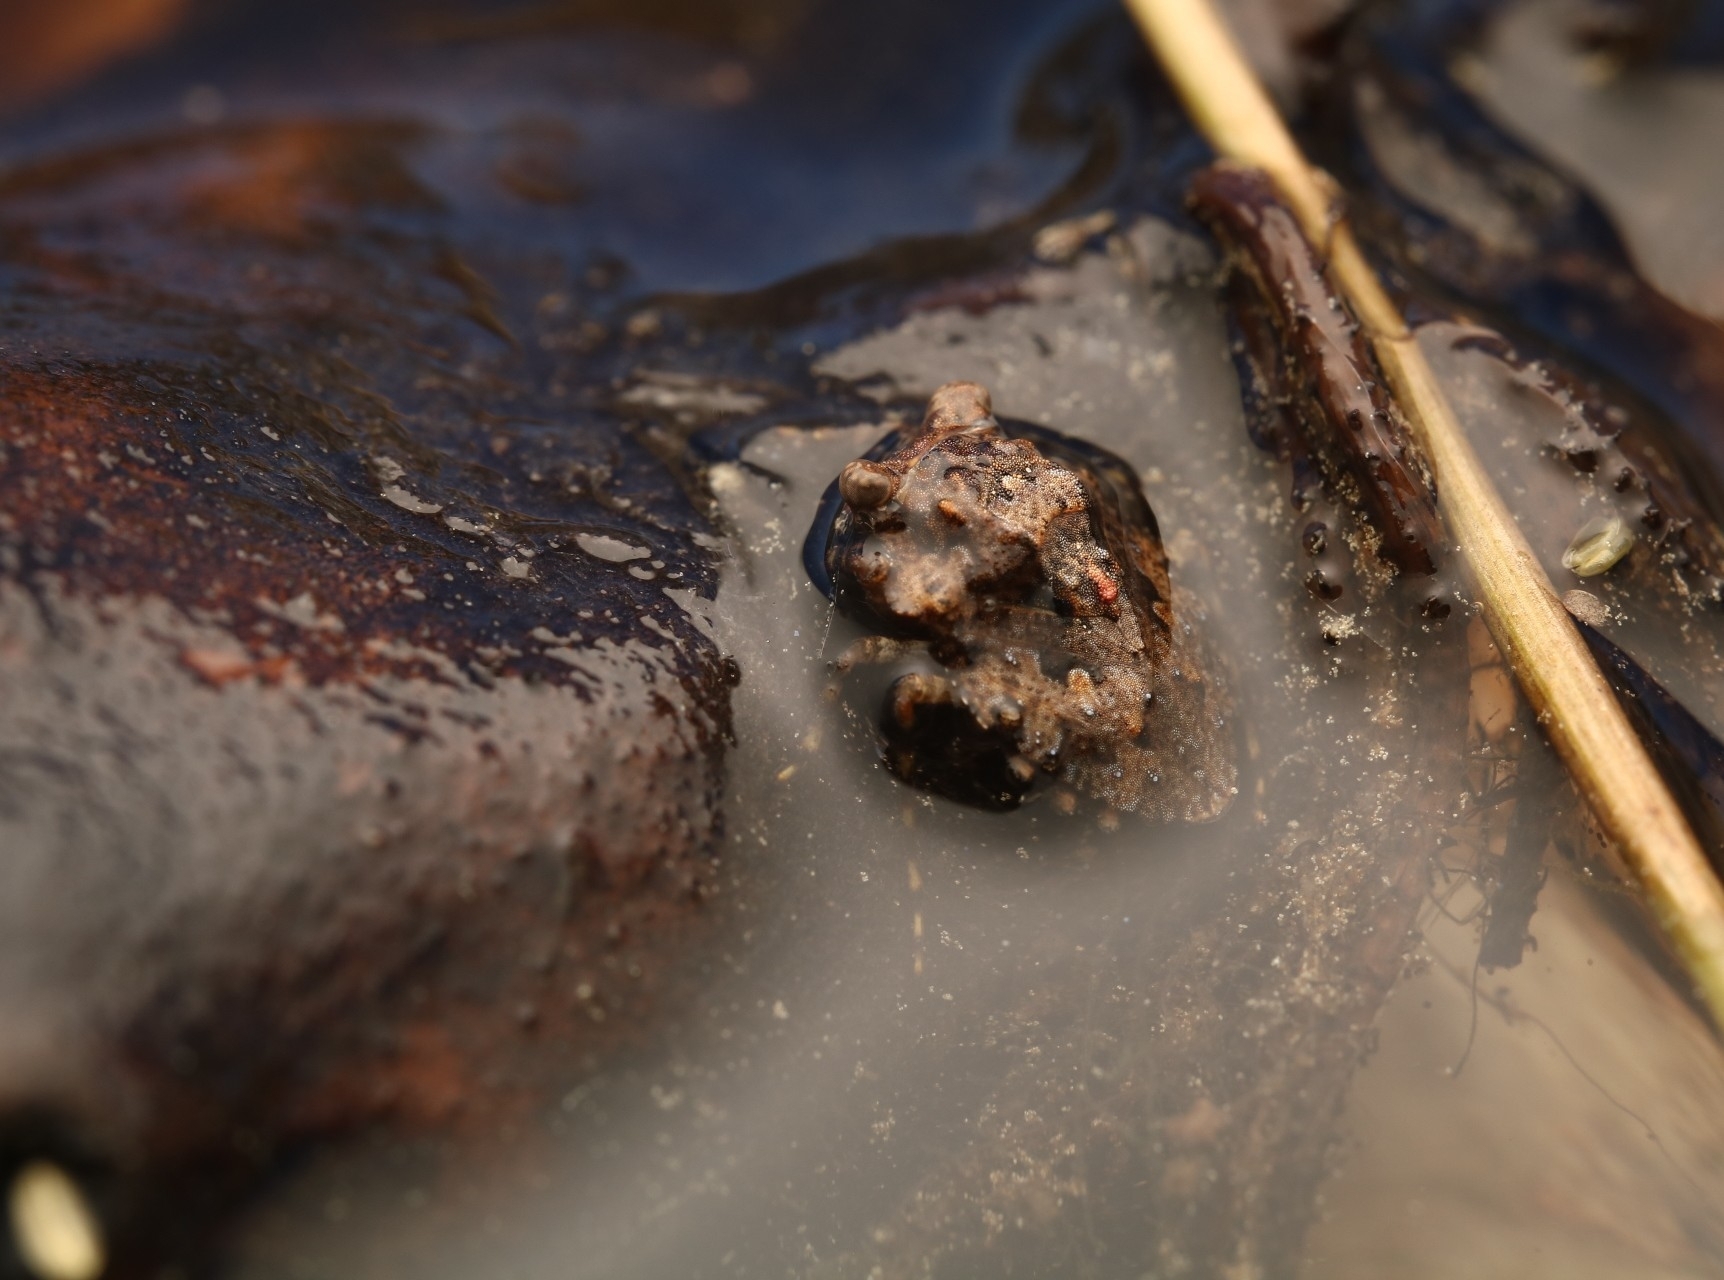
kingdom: Animalia
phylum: Arthropoda
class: Insecta
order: Hemiptera
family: Gelastocoridae
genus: Gelastocoris
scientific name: Gelastocoris oculatus
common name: Toad bug
